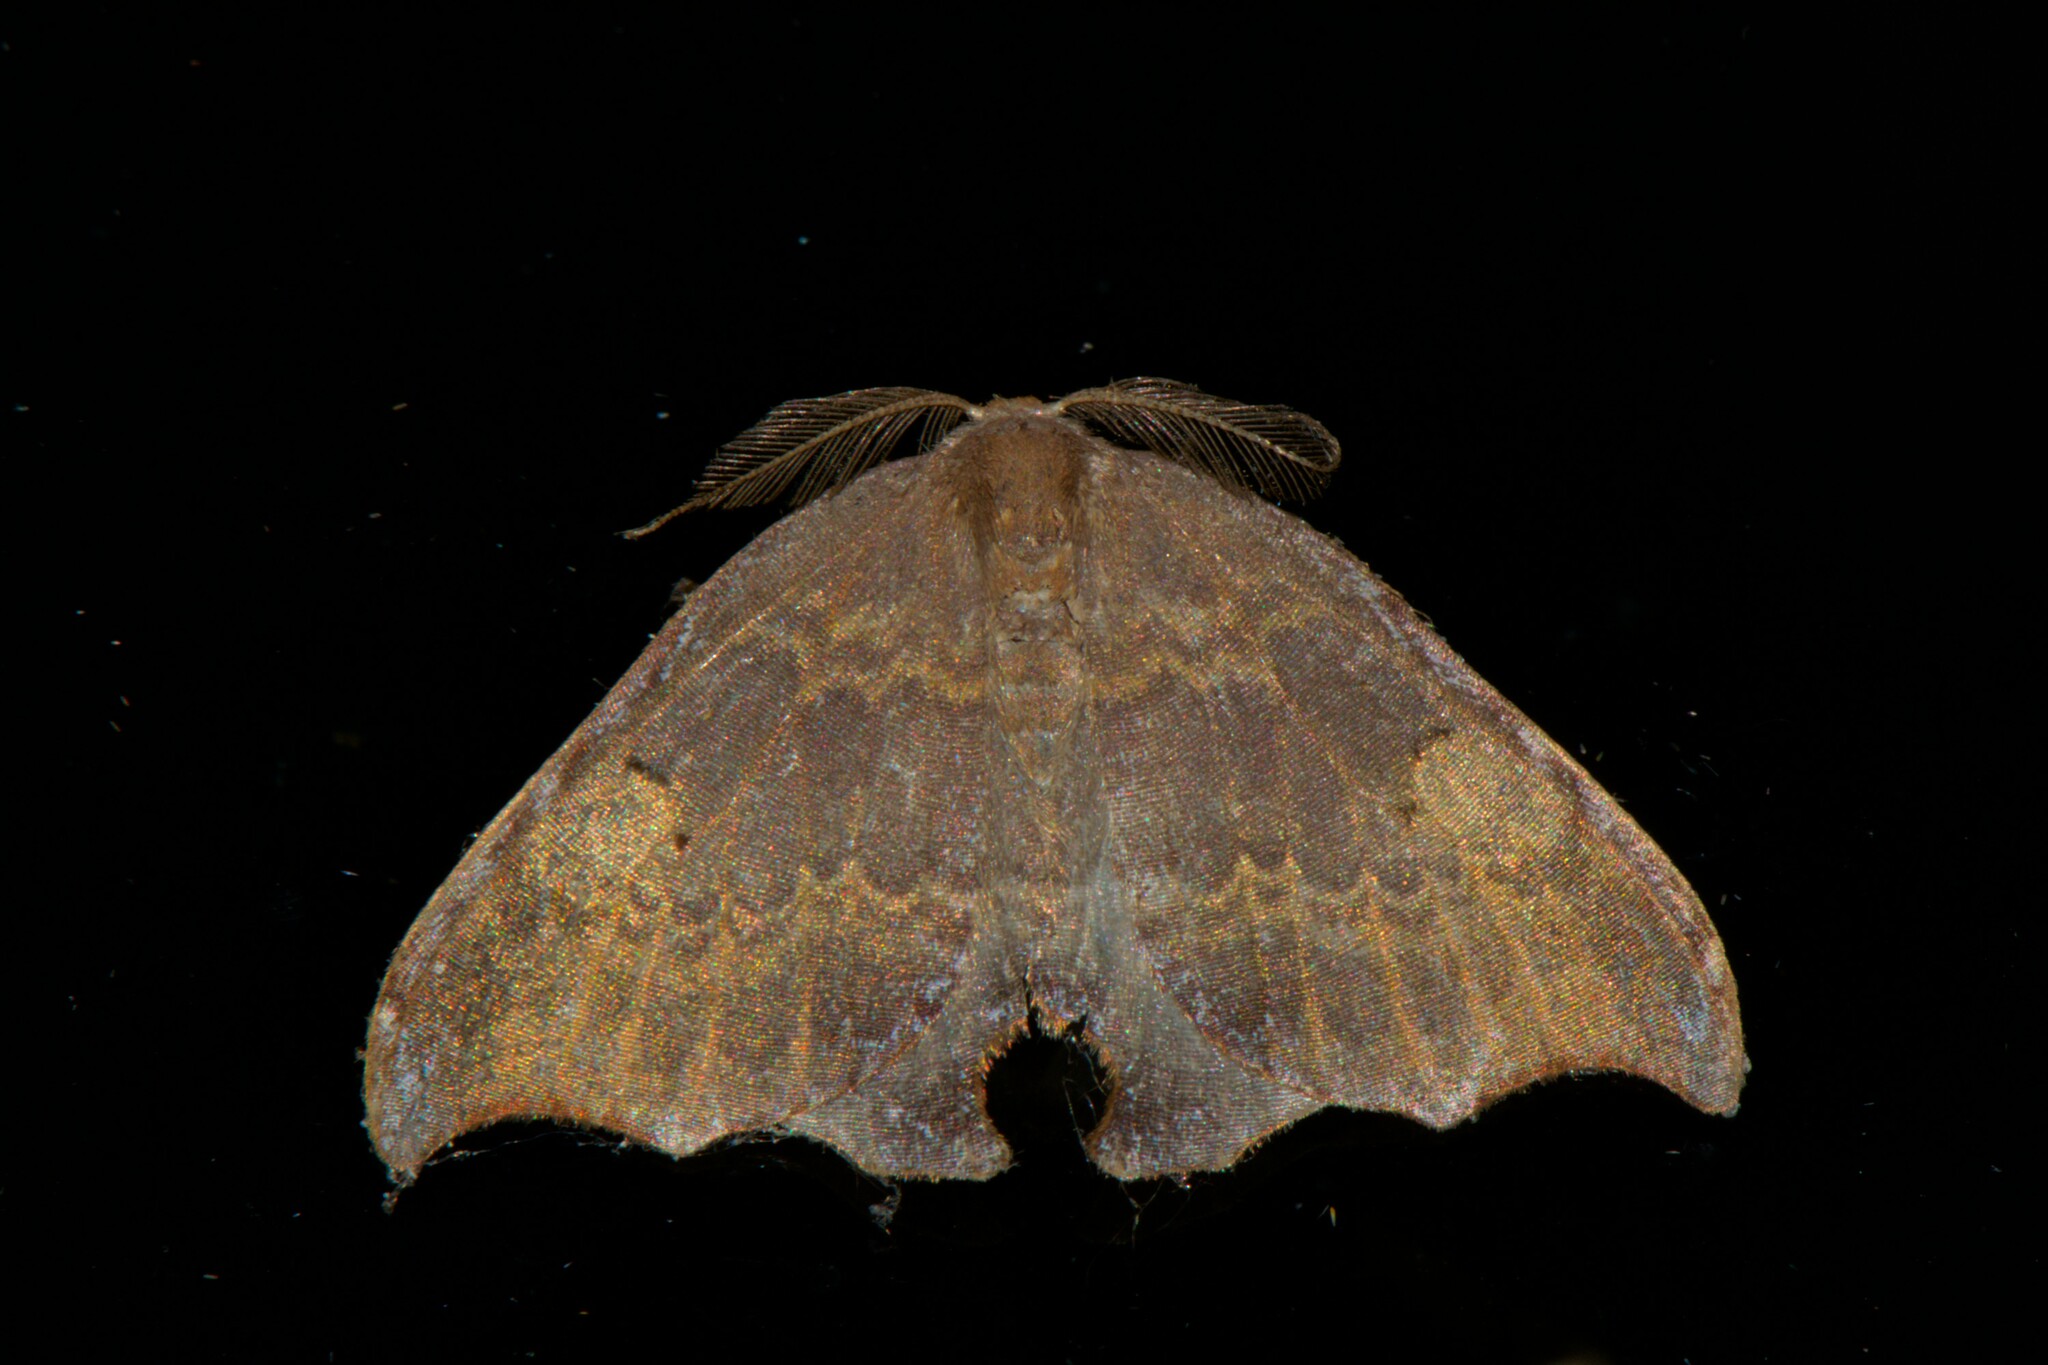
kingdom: Animalia
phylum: Arthropoda
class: Insecta
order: Lepidoptera
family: Drepanidae
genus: Thymistada
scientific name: Thymistada tripunctata
